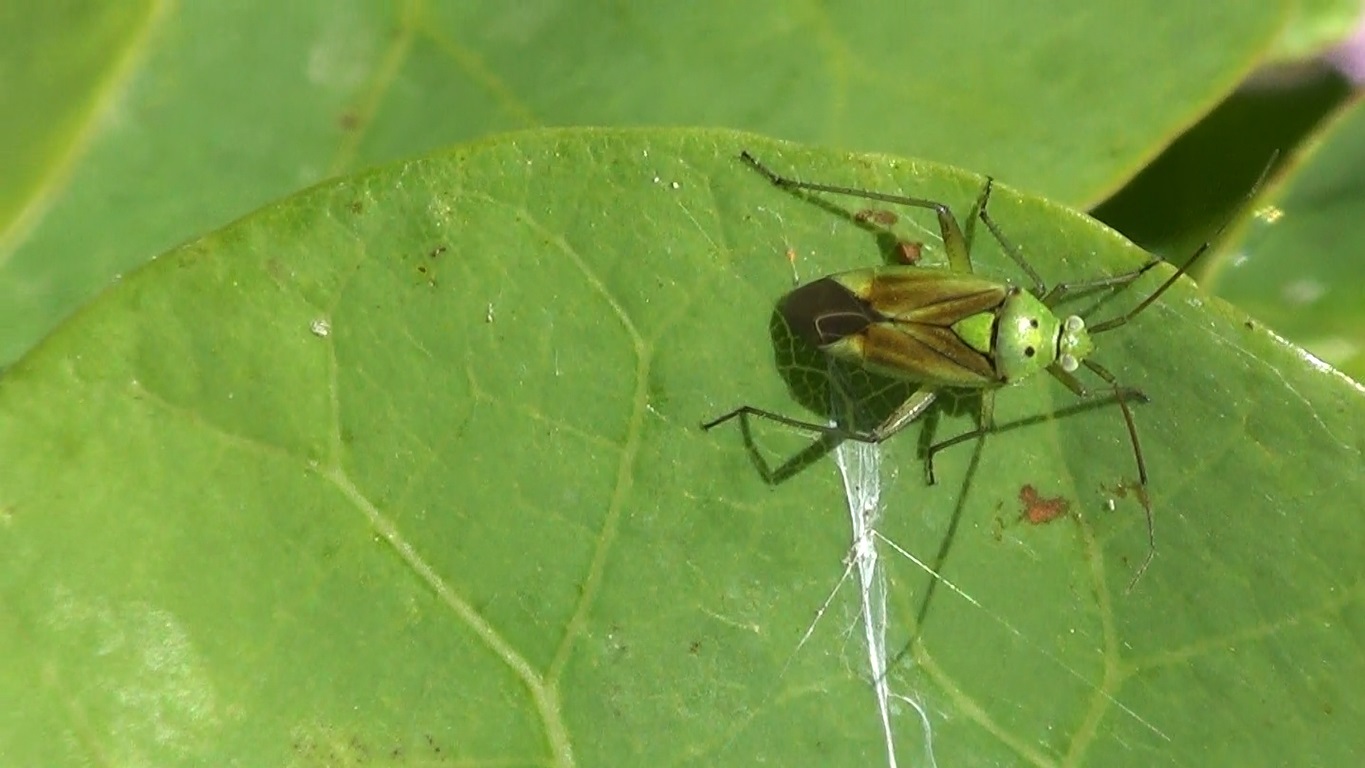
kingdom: Animalia
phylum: Arthropoda
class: Insecta
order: Hemiptera
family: Miridae
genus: Closterotomus
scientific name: Closterotomus norvegicus
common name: Plant bug
